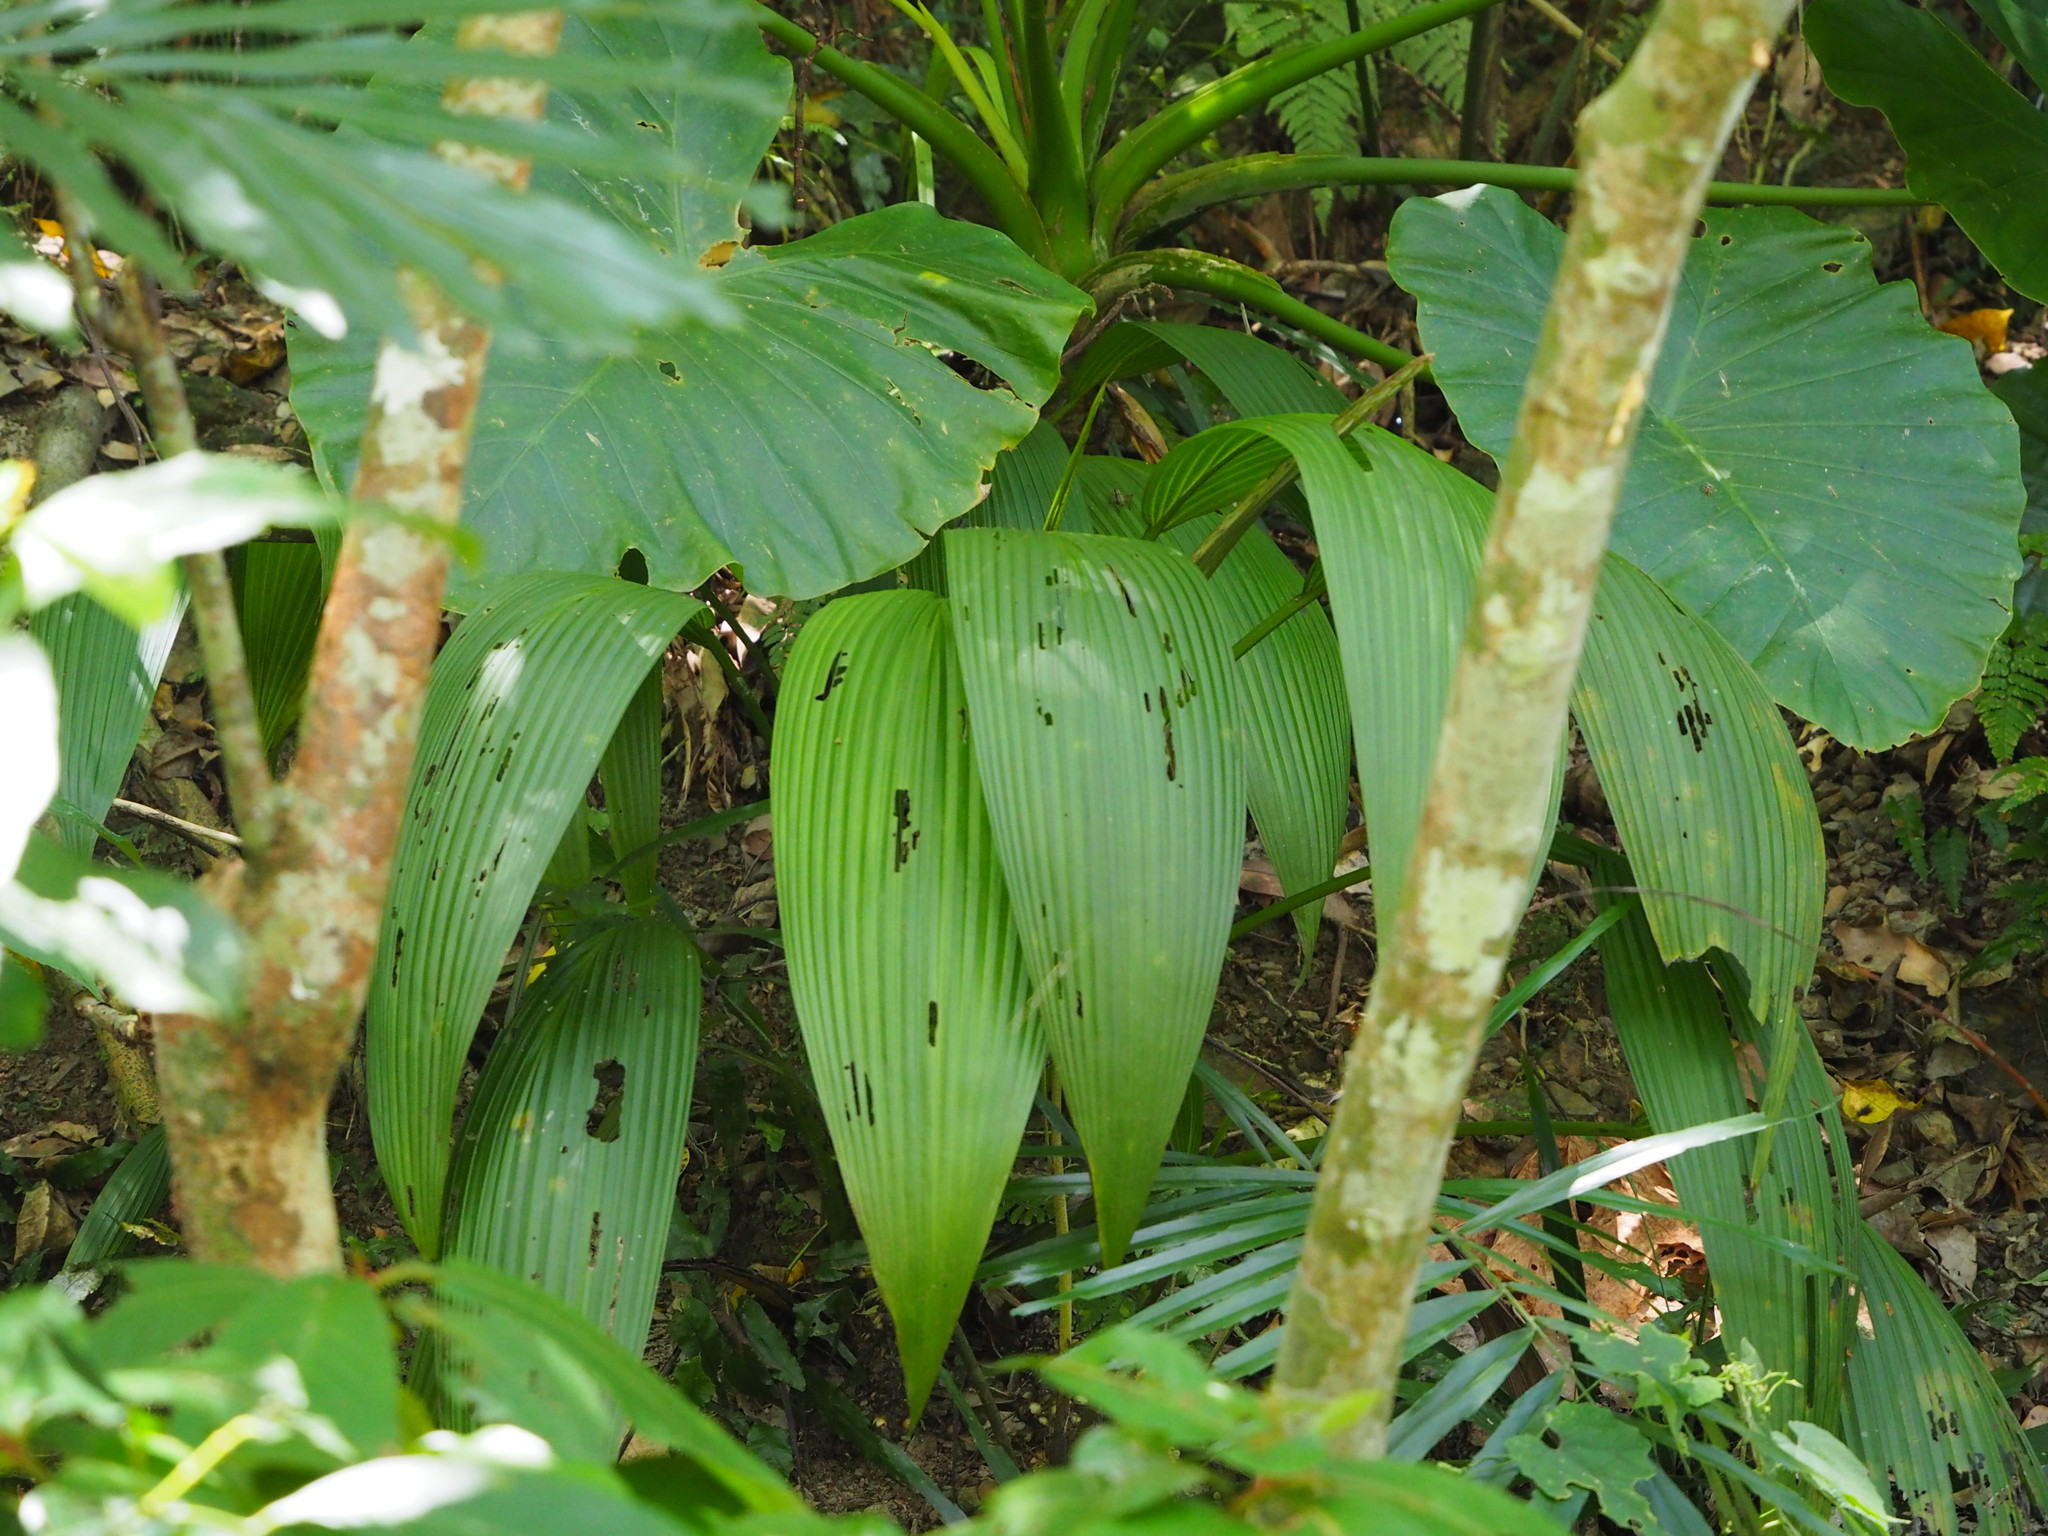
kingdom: Plantae
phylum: Tracheophyta
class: Liliopsida
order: Asparagales
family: Hypoxidaceae
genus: Curculigo
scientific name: Curculigo capitulata
